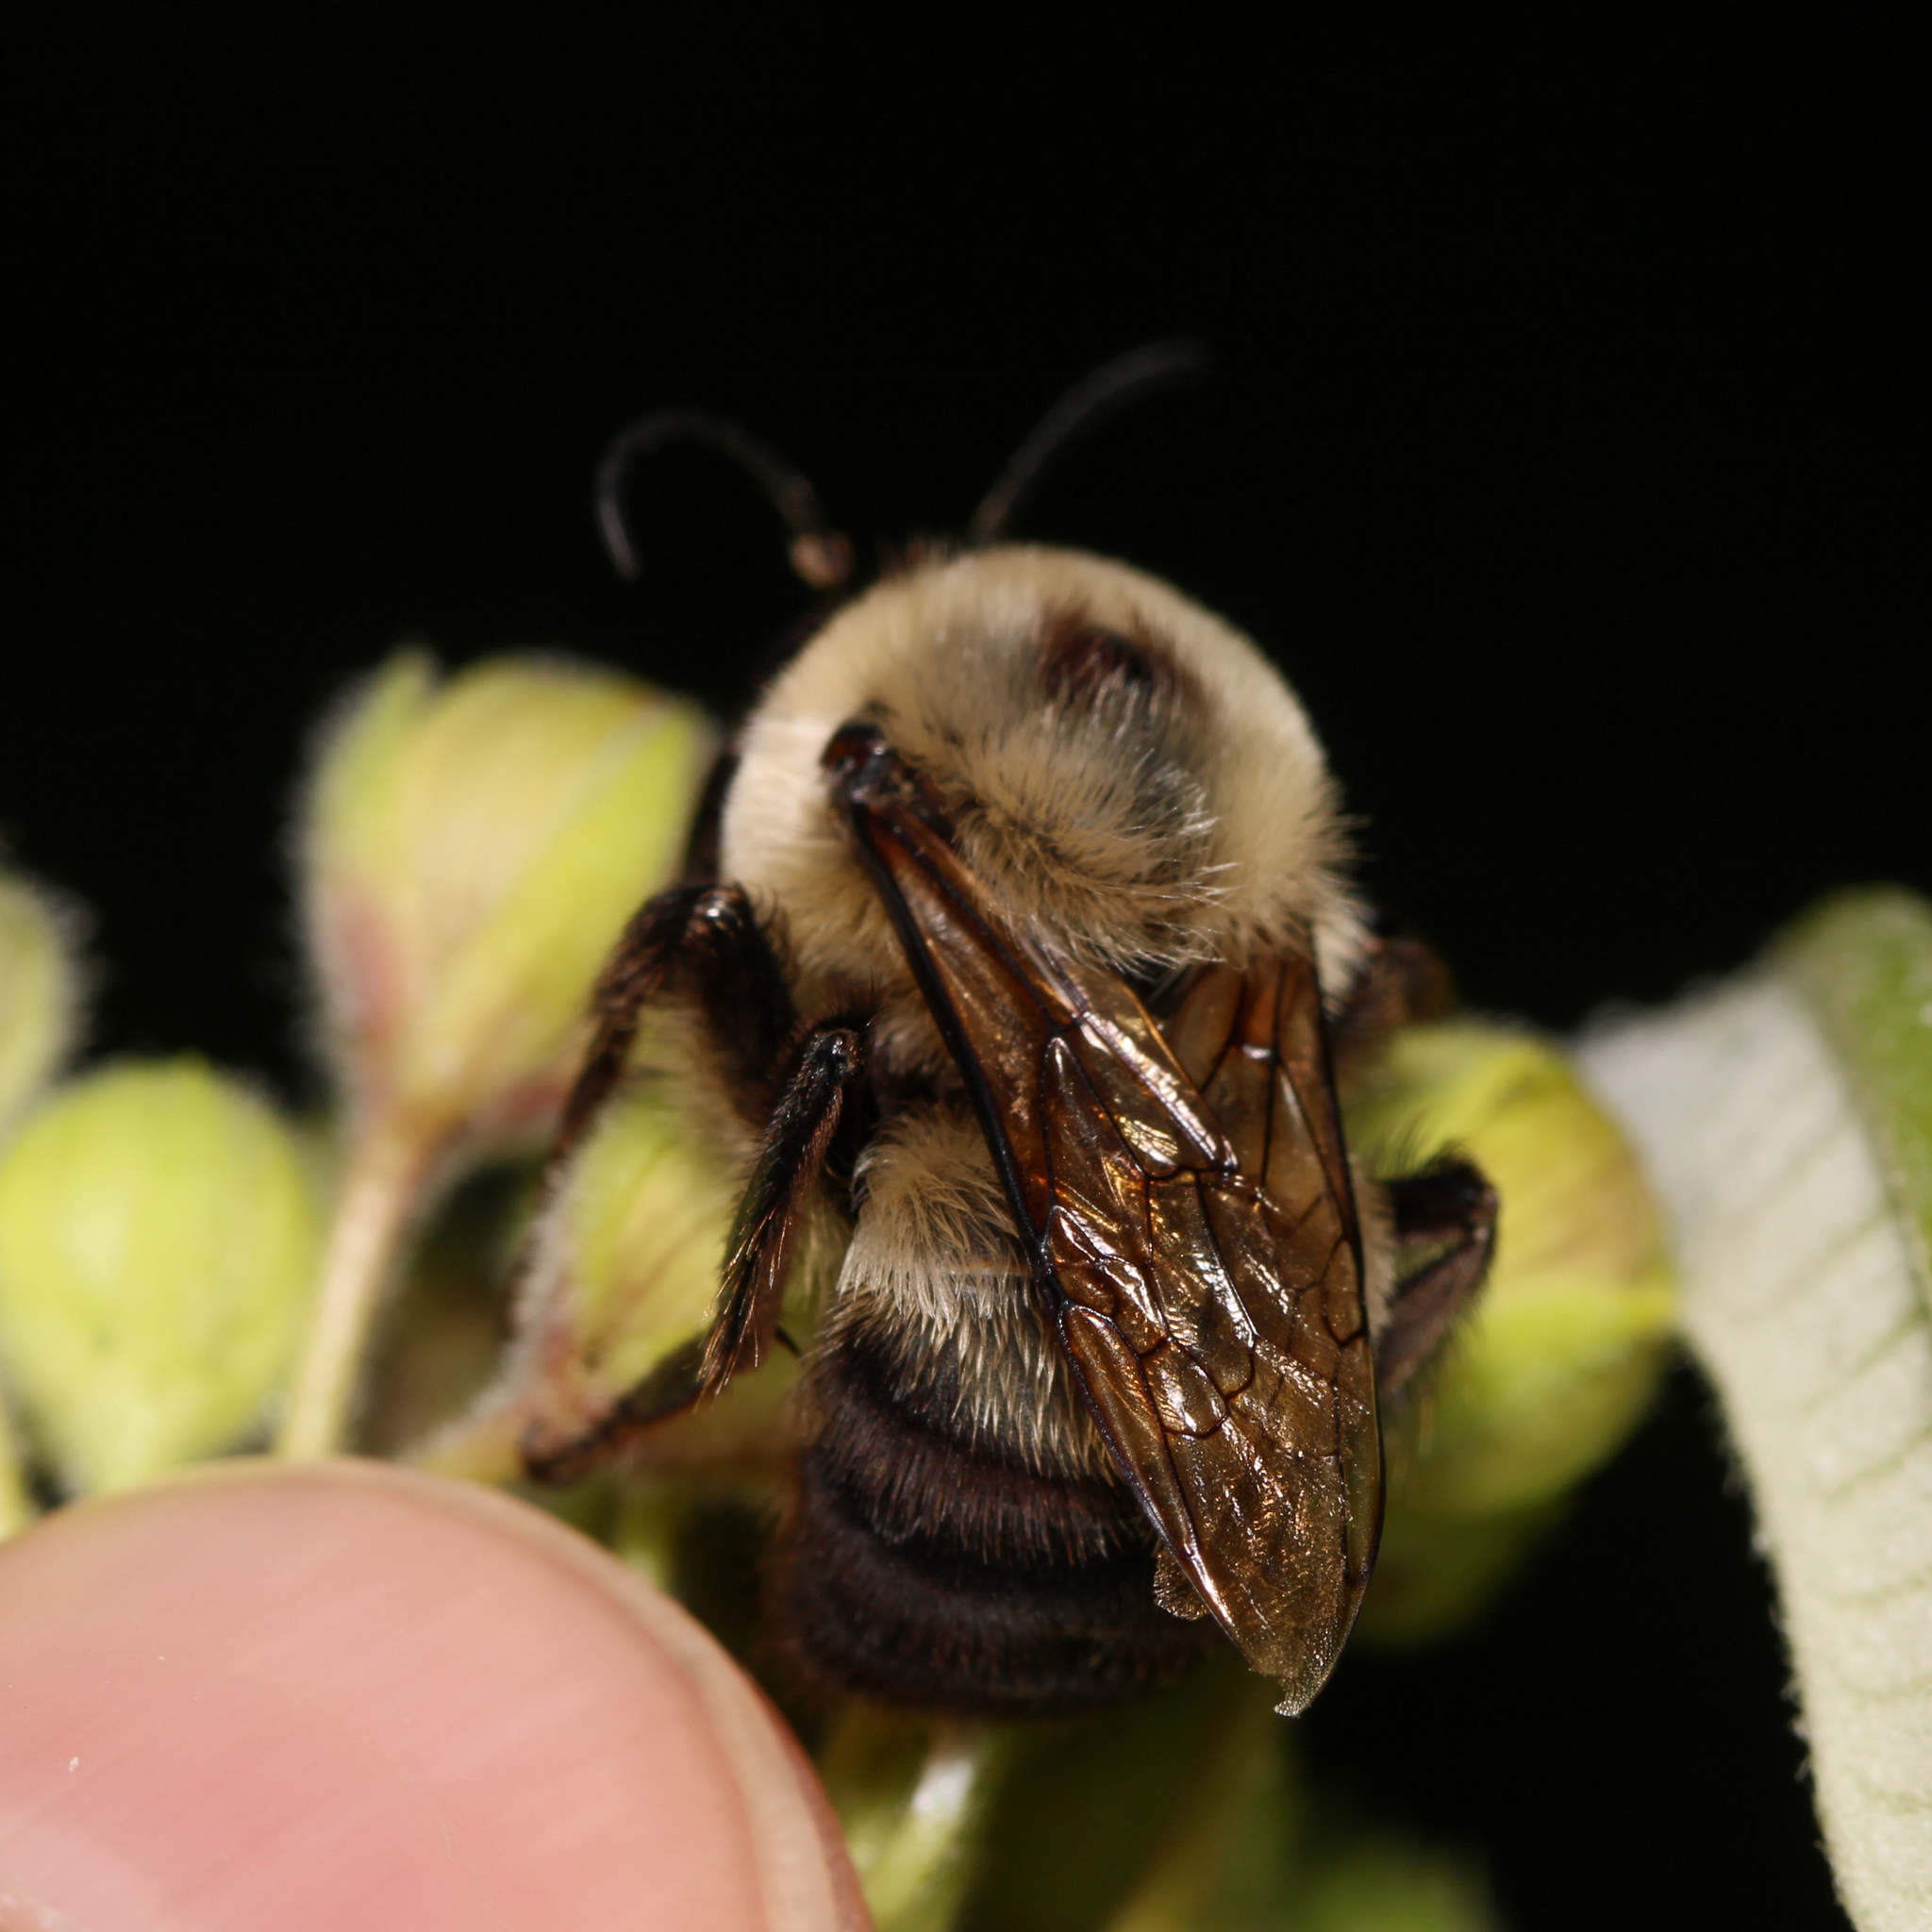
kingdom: Animalia
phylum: Arthropoda
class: Insecta
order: Hymenoptera
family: Apidae
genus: Bombus
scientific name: Bombus griseocollis
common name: Brown-belted bumble bee
